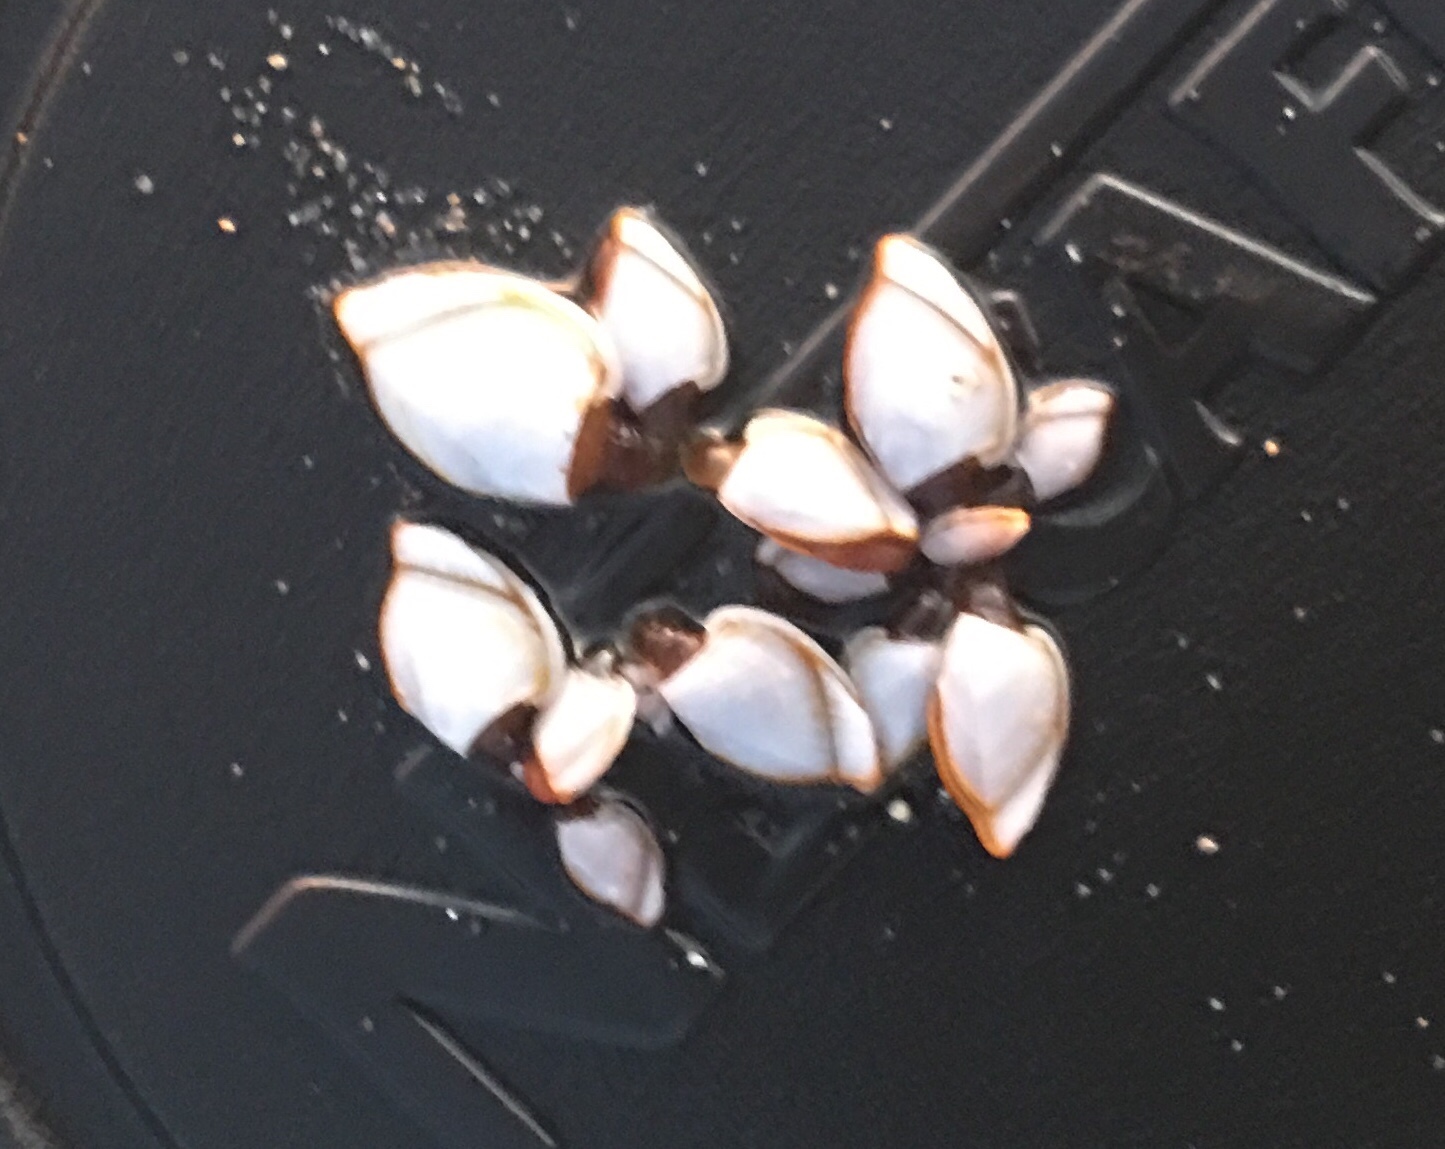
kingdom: Animalia
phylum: Arthropoda
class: Maxillopoda
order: Pedunculata
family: Lepadidae
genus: Lepas
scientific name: Lepas anserifera
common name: Goose barnacle
